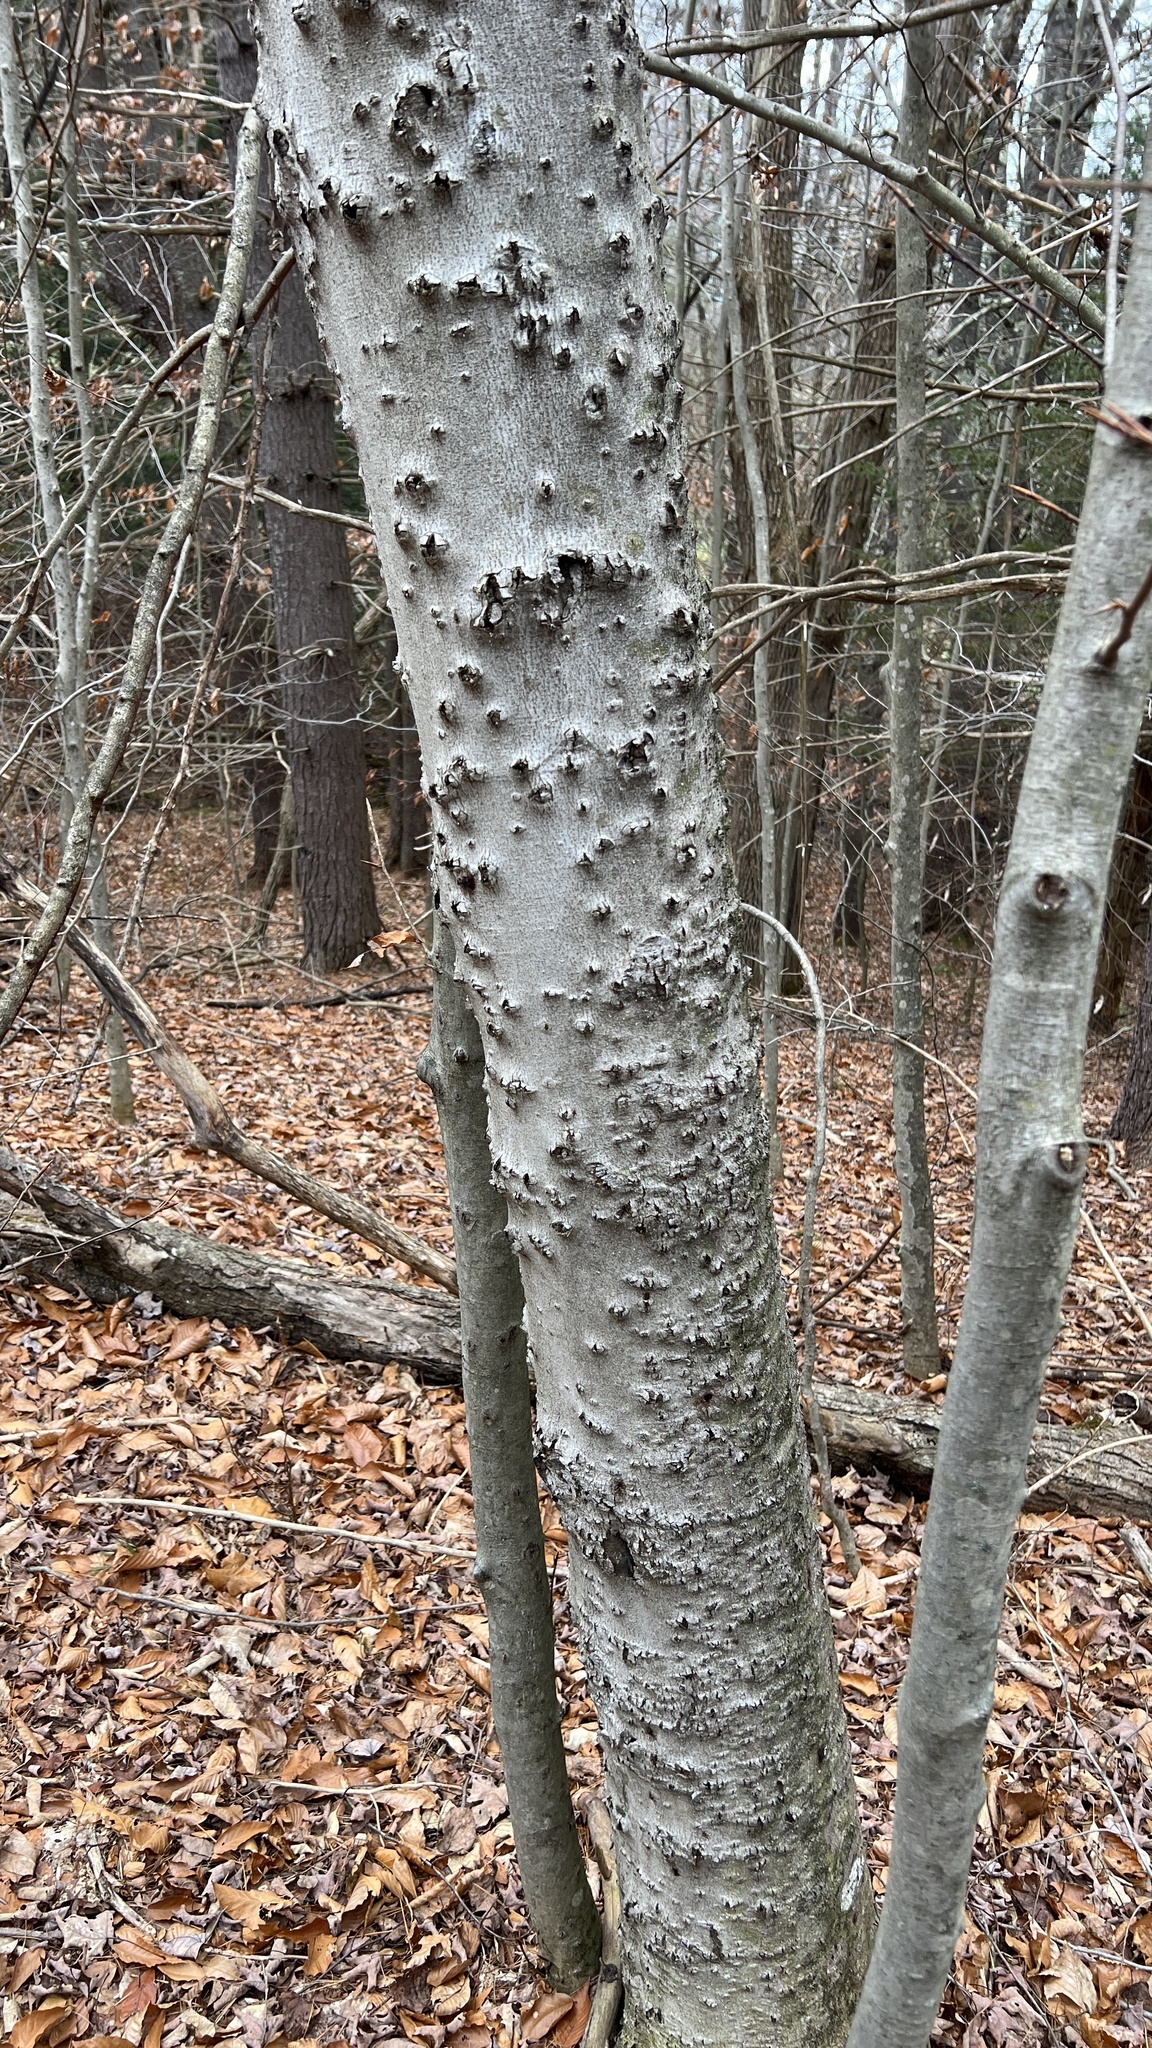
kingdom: Animalia
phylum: Arthropoda
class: Insecta
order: Hemiptera
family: Eriococcidae
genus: Cryptococcus
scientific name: Cryptococcus fagisuga
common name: Beech scale
